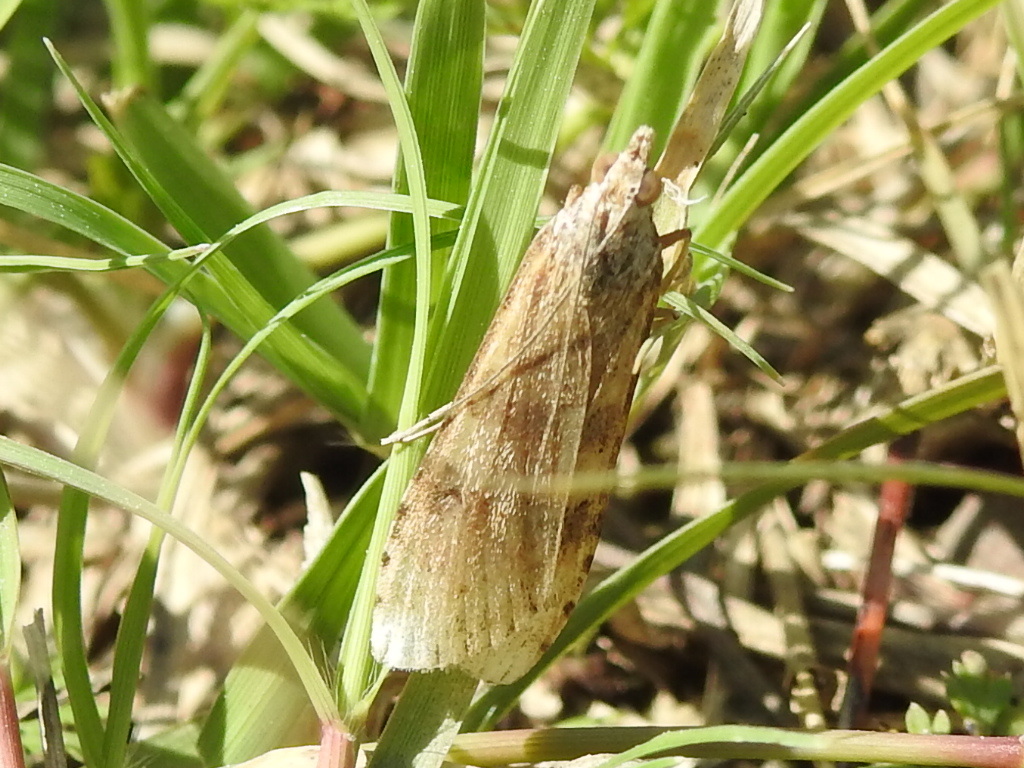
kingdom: Animalia
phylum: Arthropoda
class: Insecta
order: Lepidoptera
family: Crambidae
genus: Nomophila
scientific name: Nomophila nearctica
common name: American rush veneer
